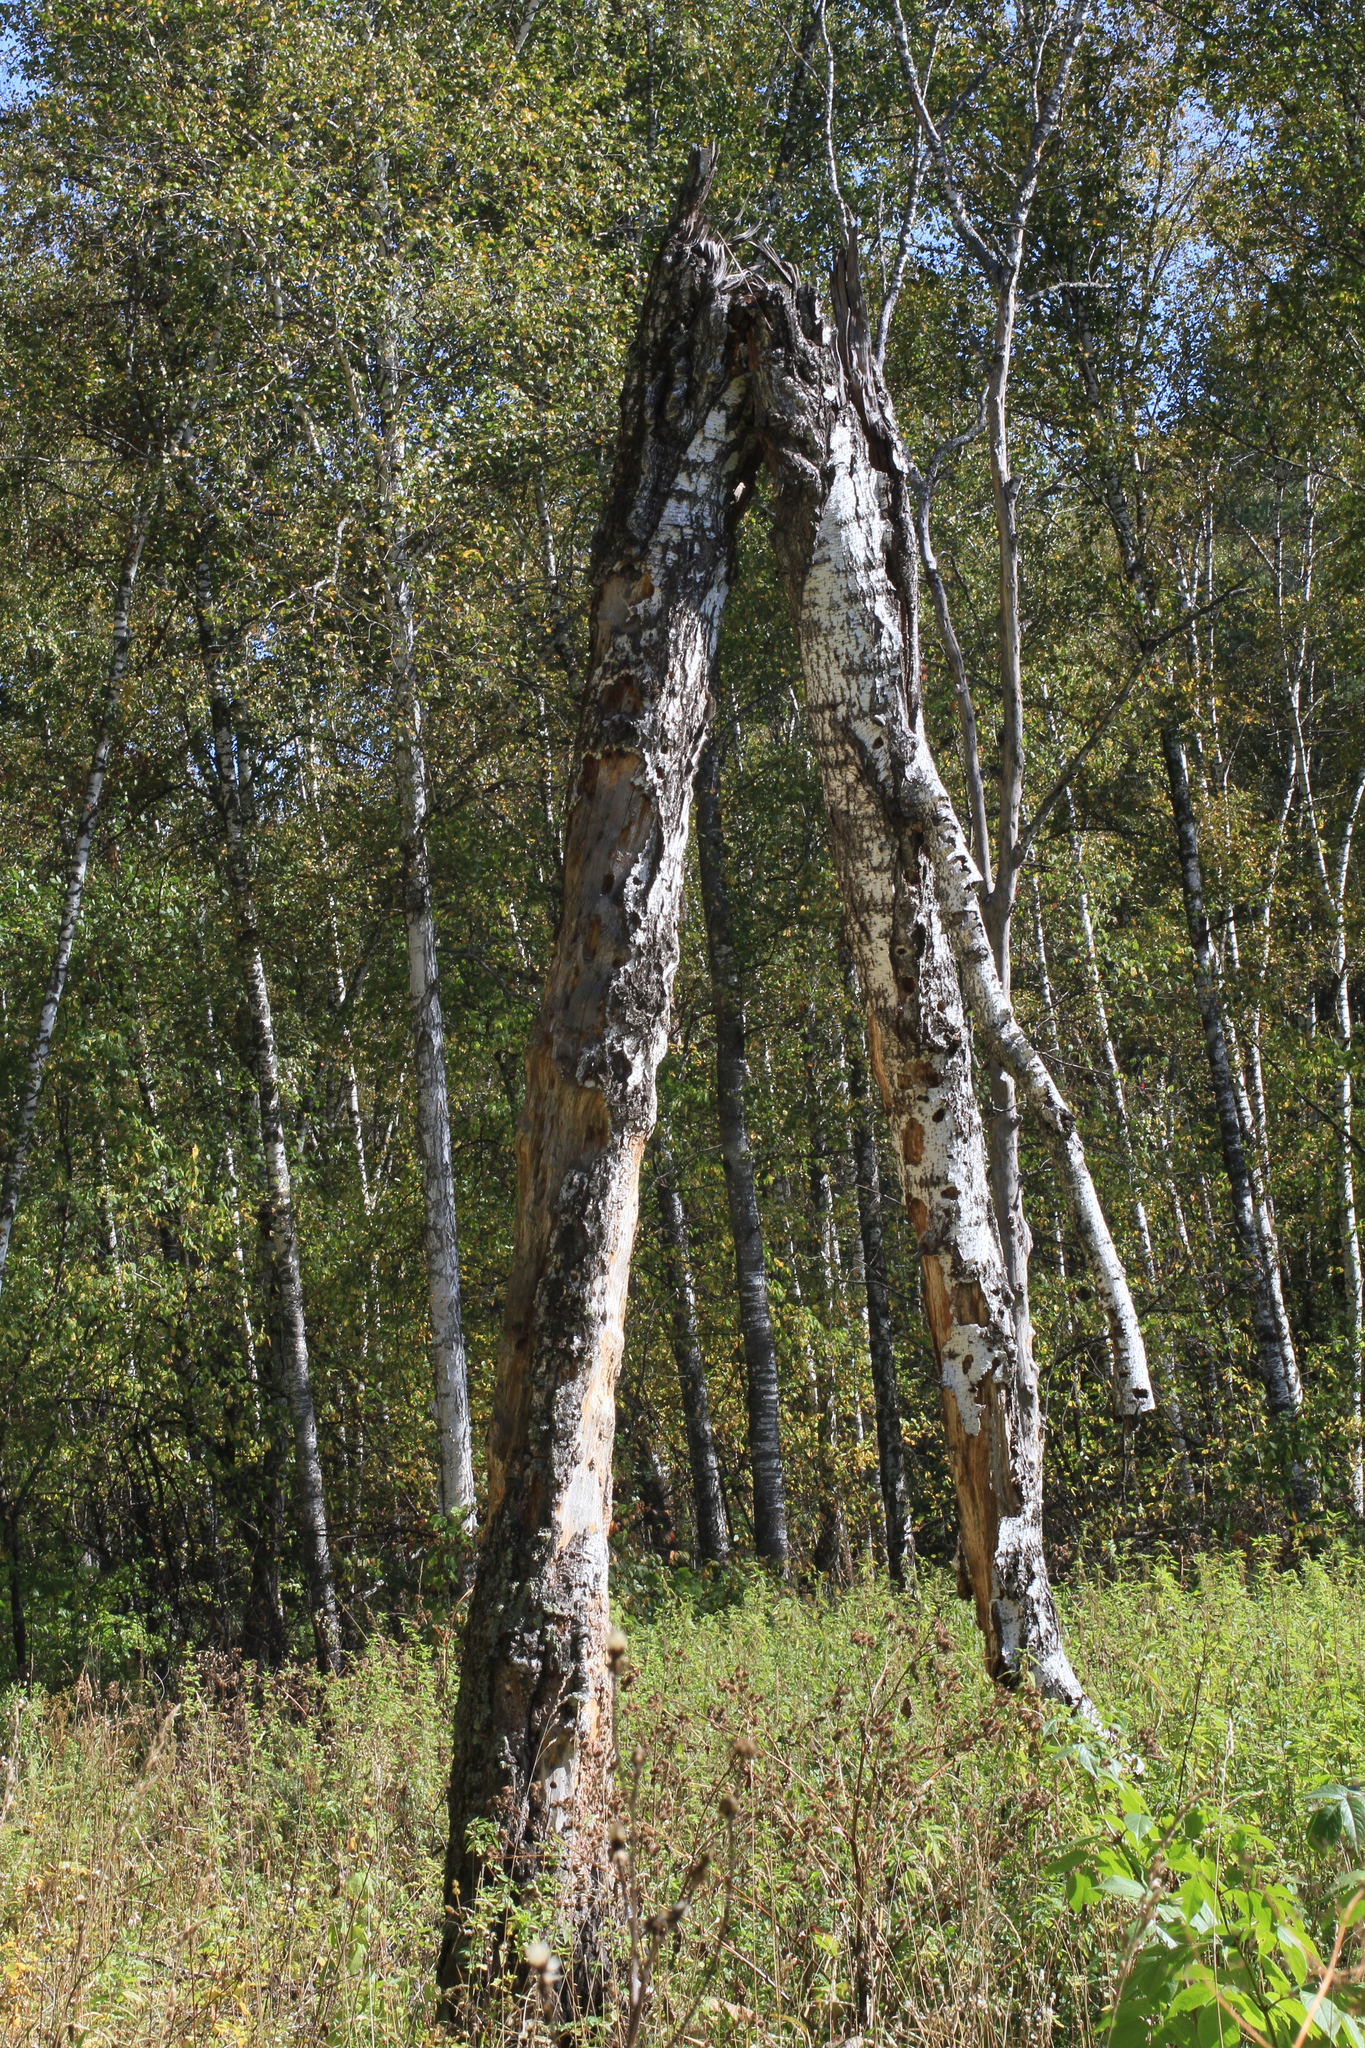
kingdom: Plantae
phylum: Tracheophyta
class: Magnoliopsida
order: Fagales
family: Betulaceae
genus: Betula
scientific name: Betula pendula
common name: Silver birch
